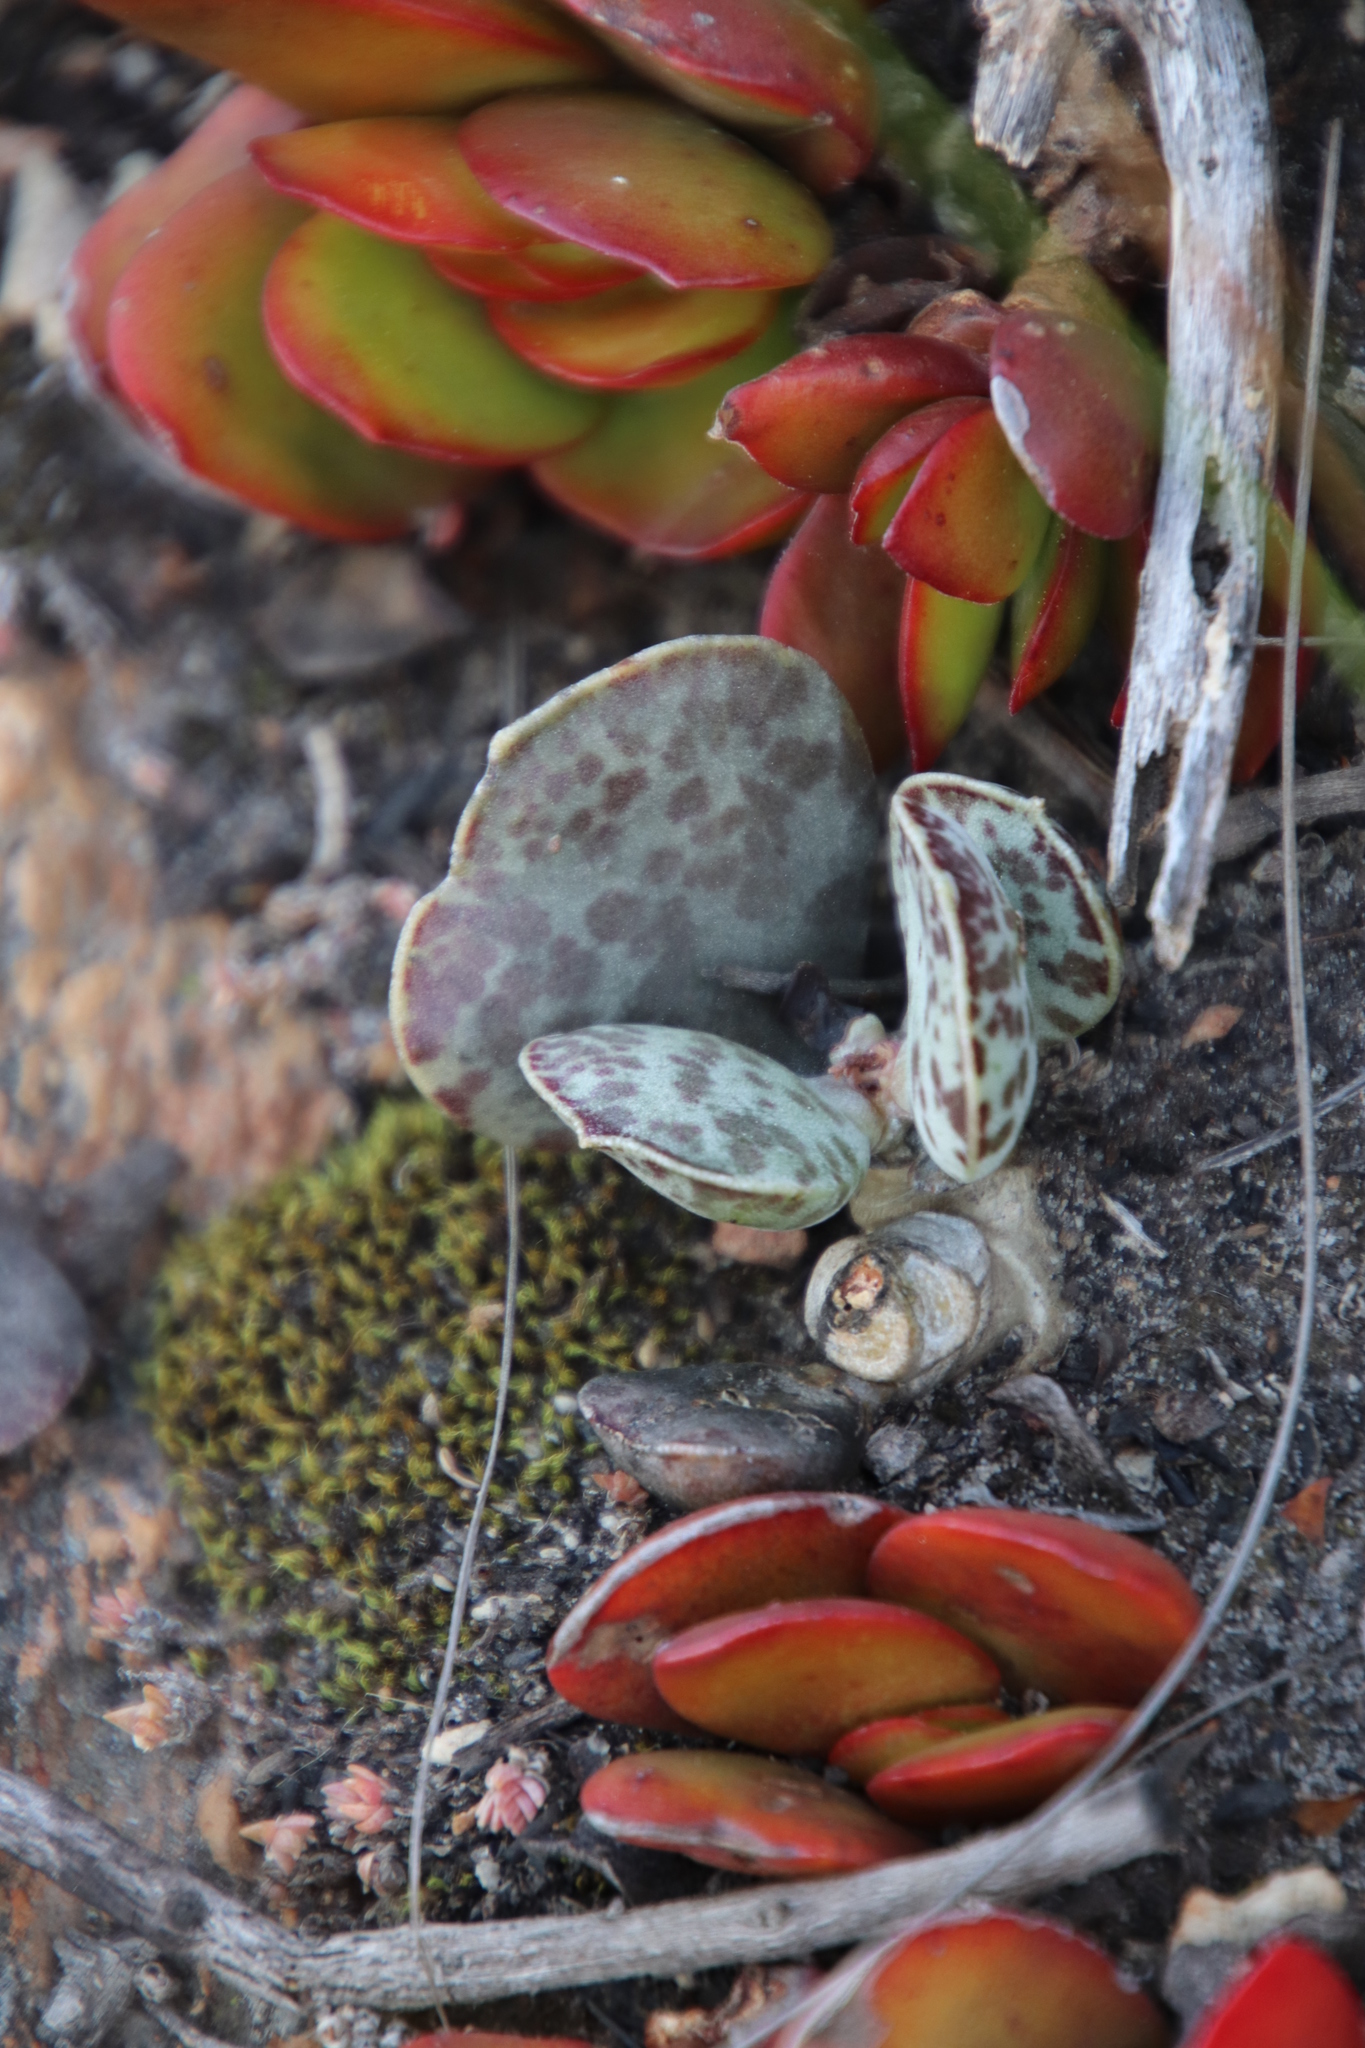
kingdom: Plantae
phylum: Tracheophyta
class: Magnoliopsida
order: Saxifragales
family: Crassulaceae
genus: Adromischus
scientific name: Adromischus hemisphaericus
